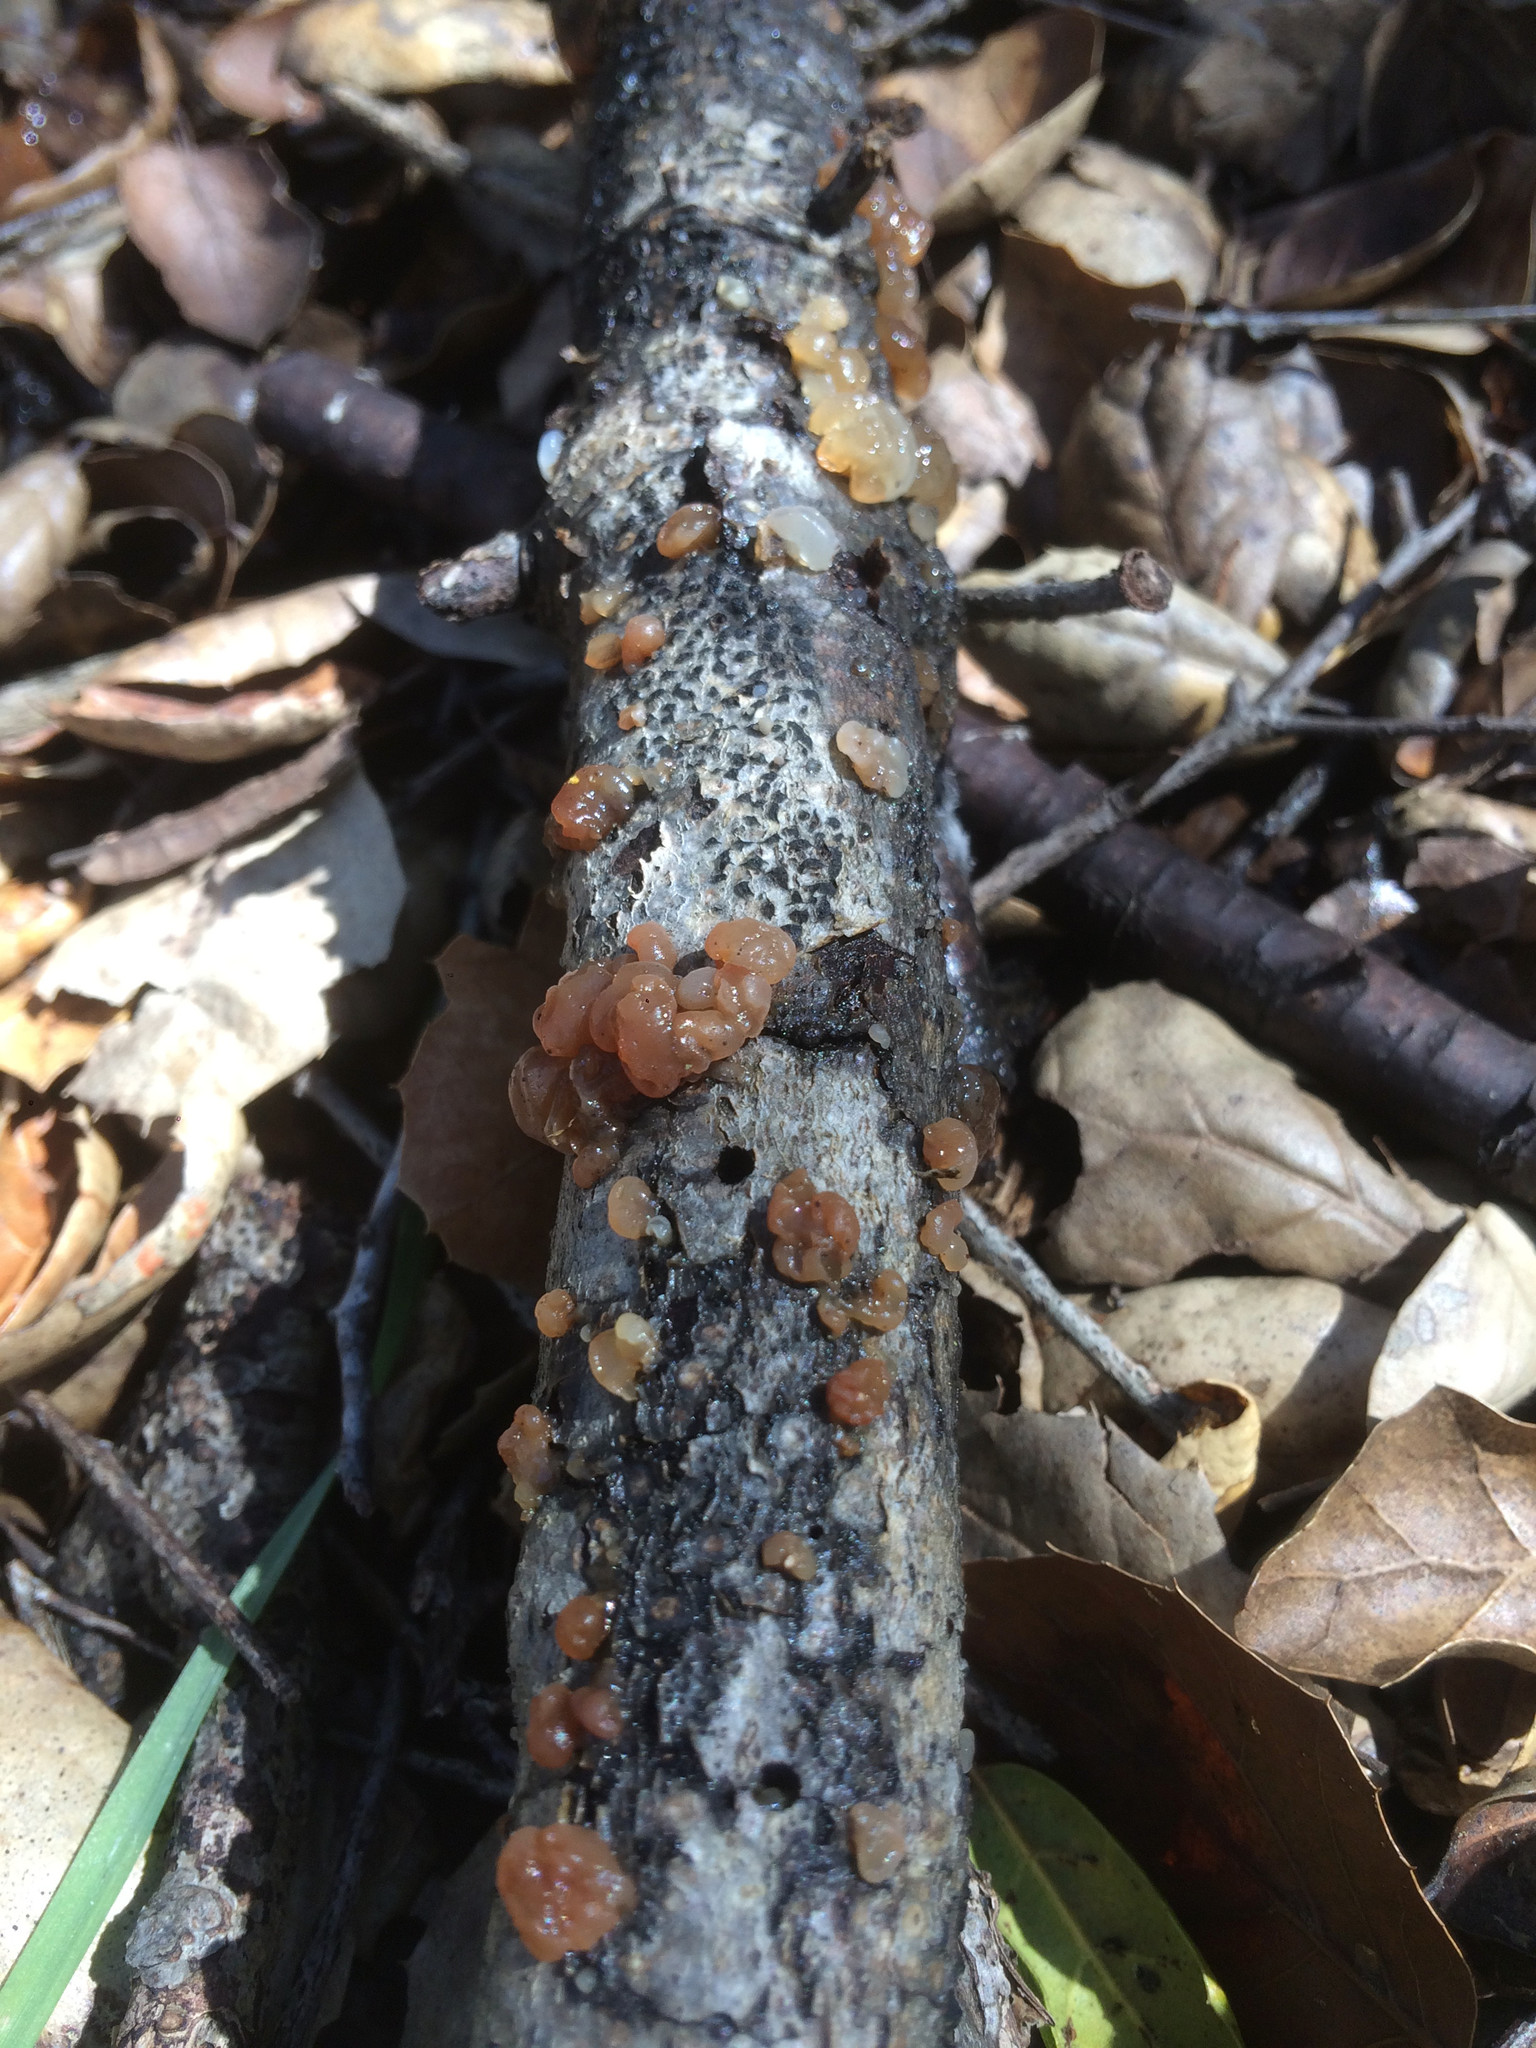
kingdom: Fungi
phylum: Basidiomycota
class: Agaricomycetes
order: Auriculariales
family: Hyaloriaceae
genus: Myxarium
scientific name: Myxarium nucleatum
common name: Crystal brain fungus
